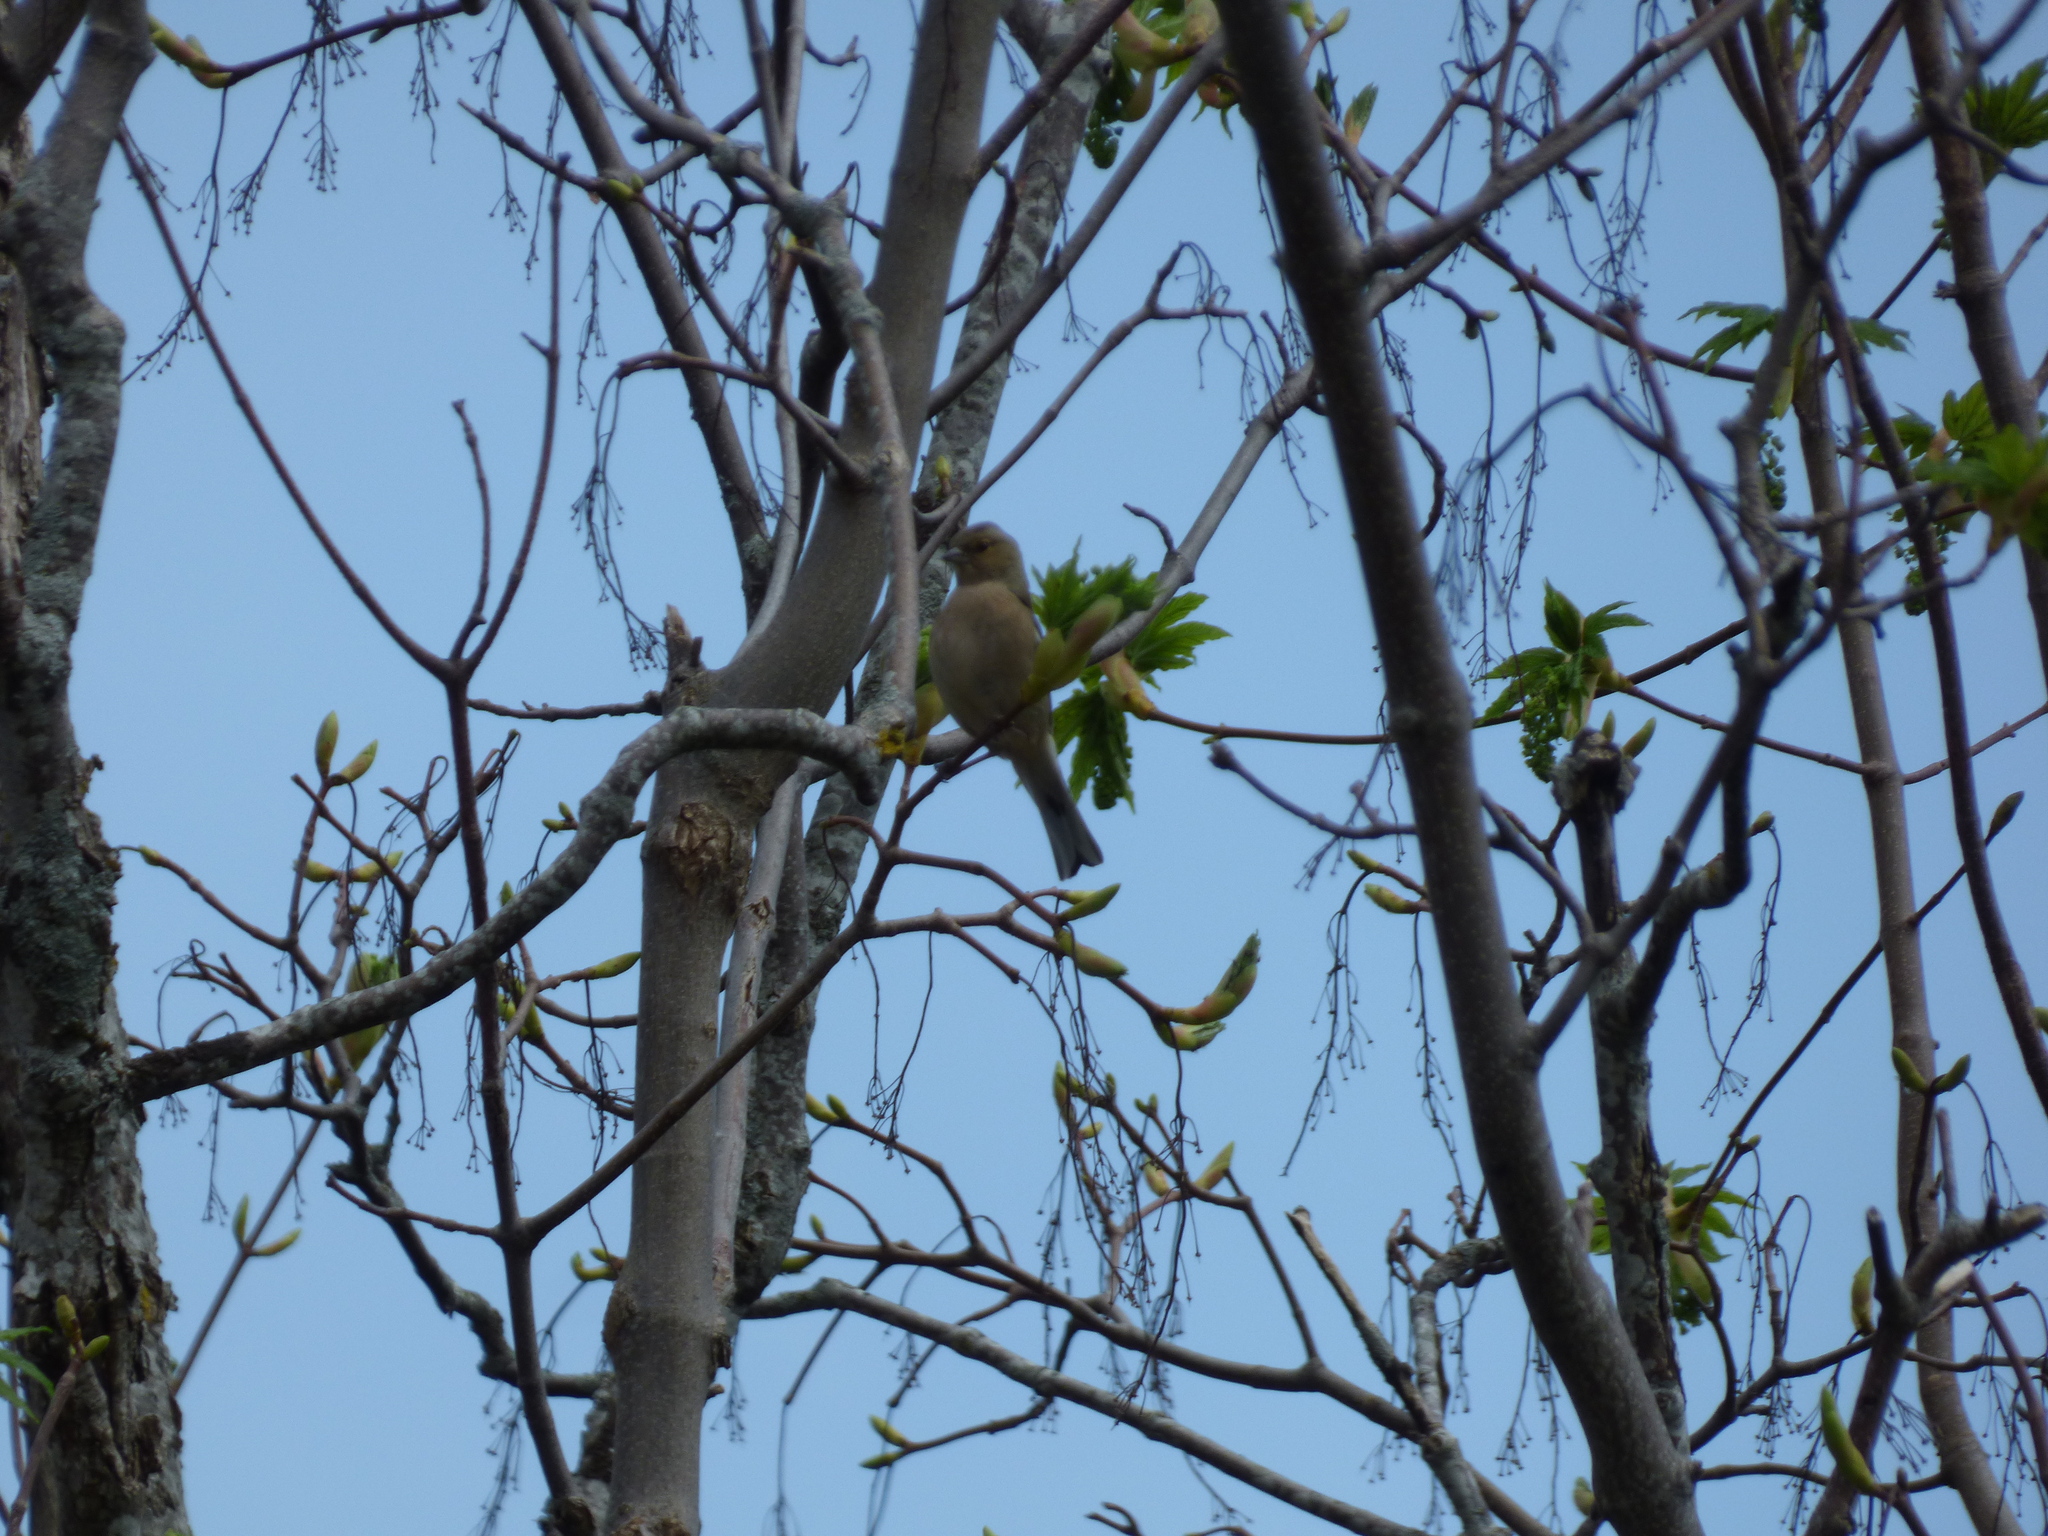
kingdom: Animalia
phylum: Chordata
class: Aves
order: Passeriformes
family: Fringillidae
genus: Fringilla
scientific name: Fringilla coelebs
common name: Common chaffinch
